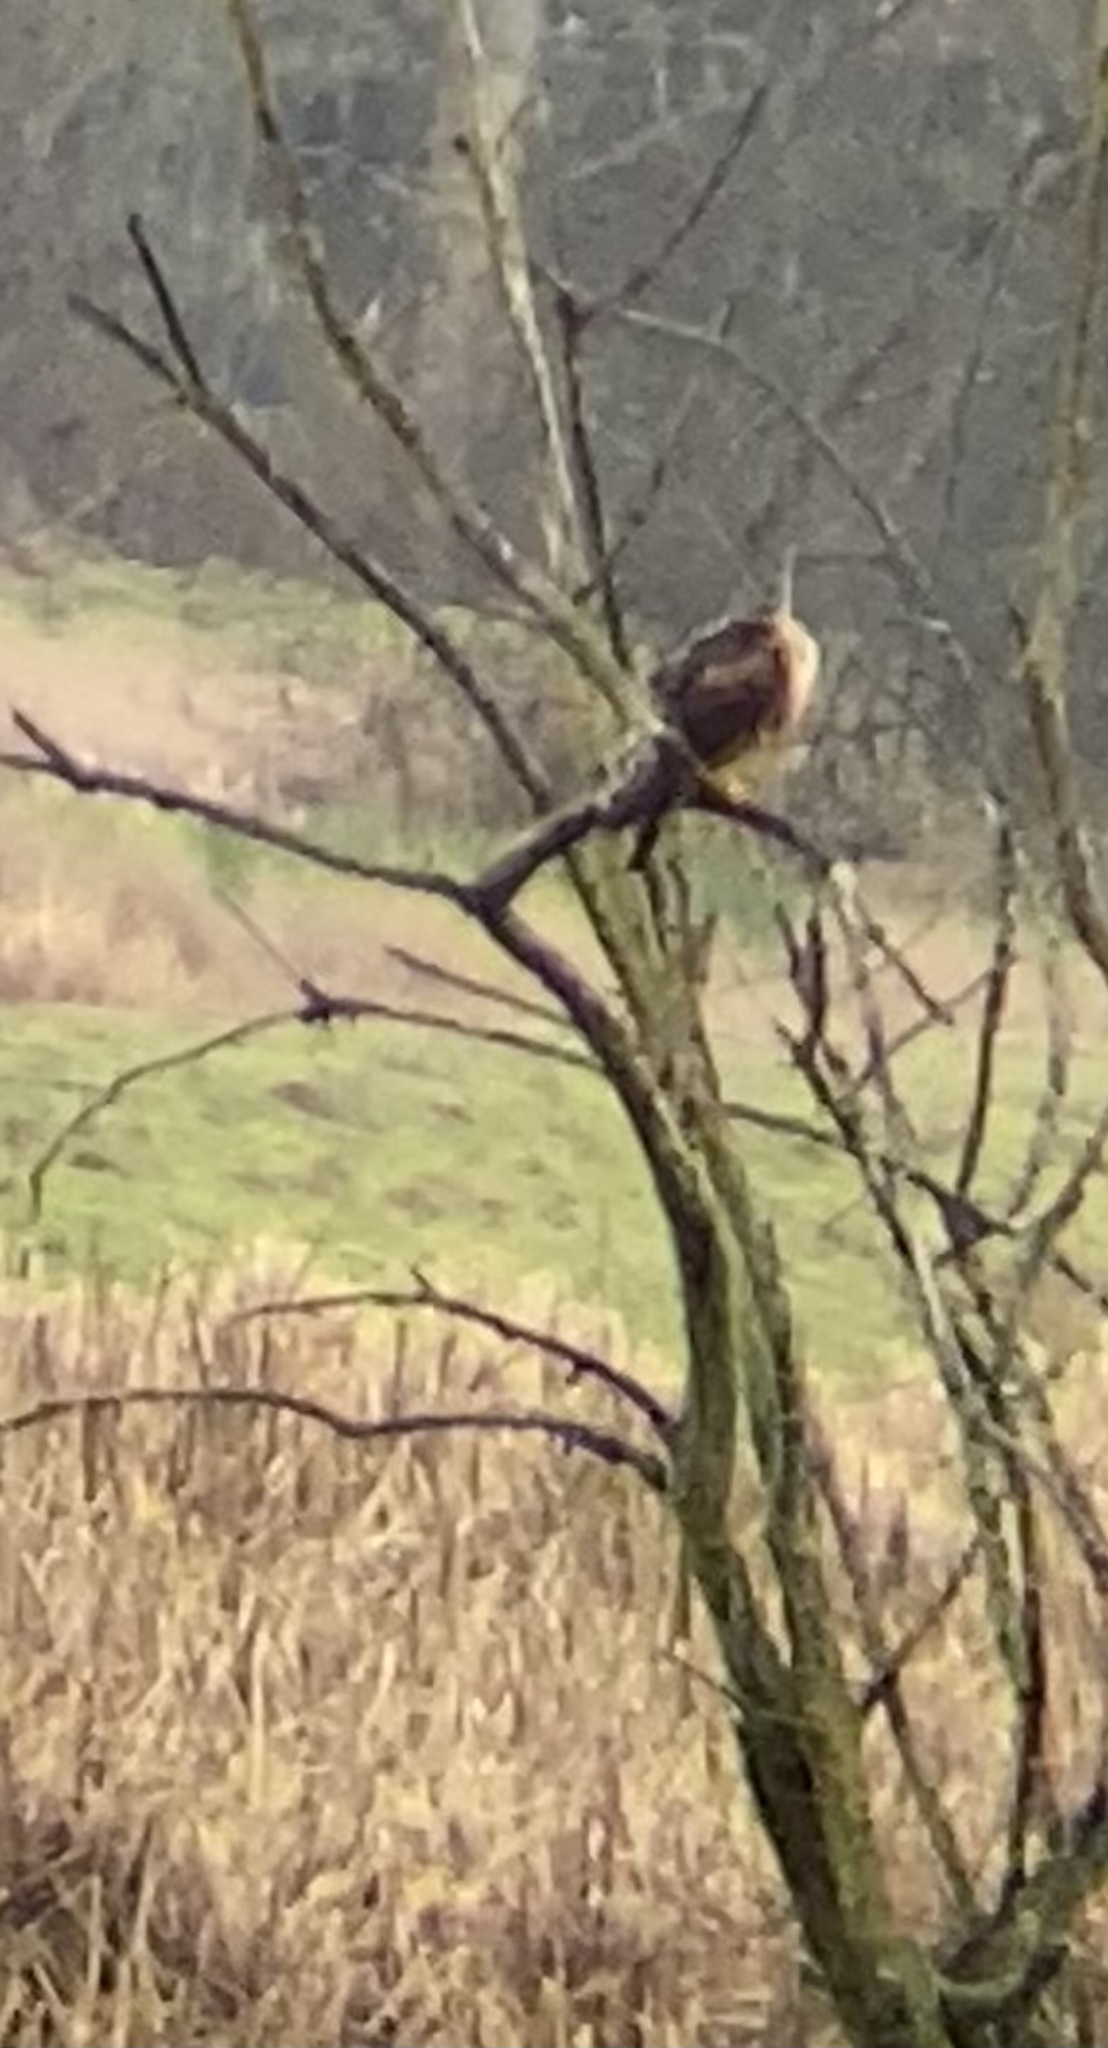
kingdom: Animalia
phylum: Chordata
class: Aves
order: Accipitriformes
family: Accipitridae
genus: Circus
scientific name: Circus cyaneus
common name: Hen harrier
